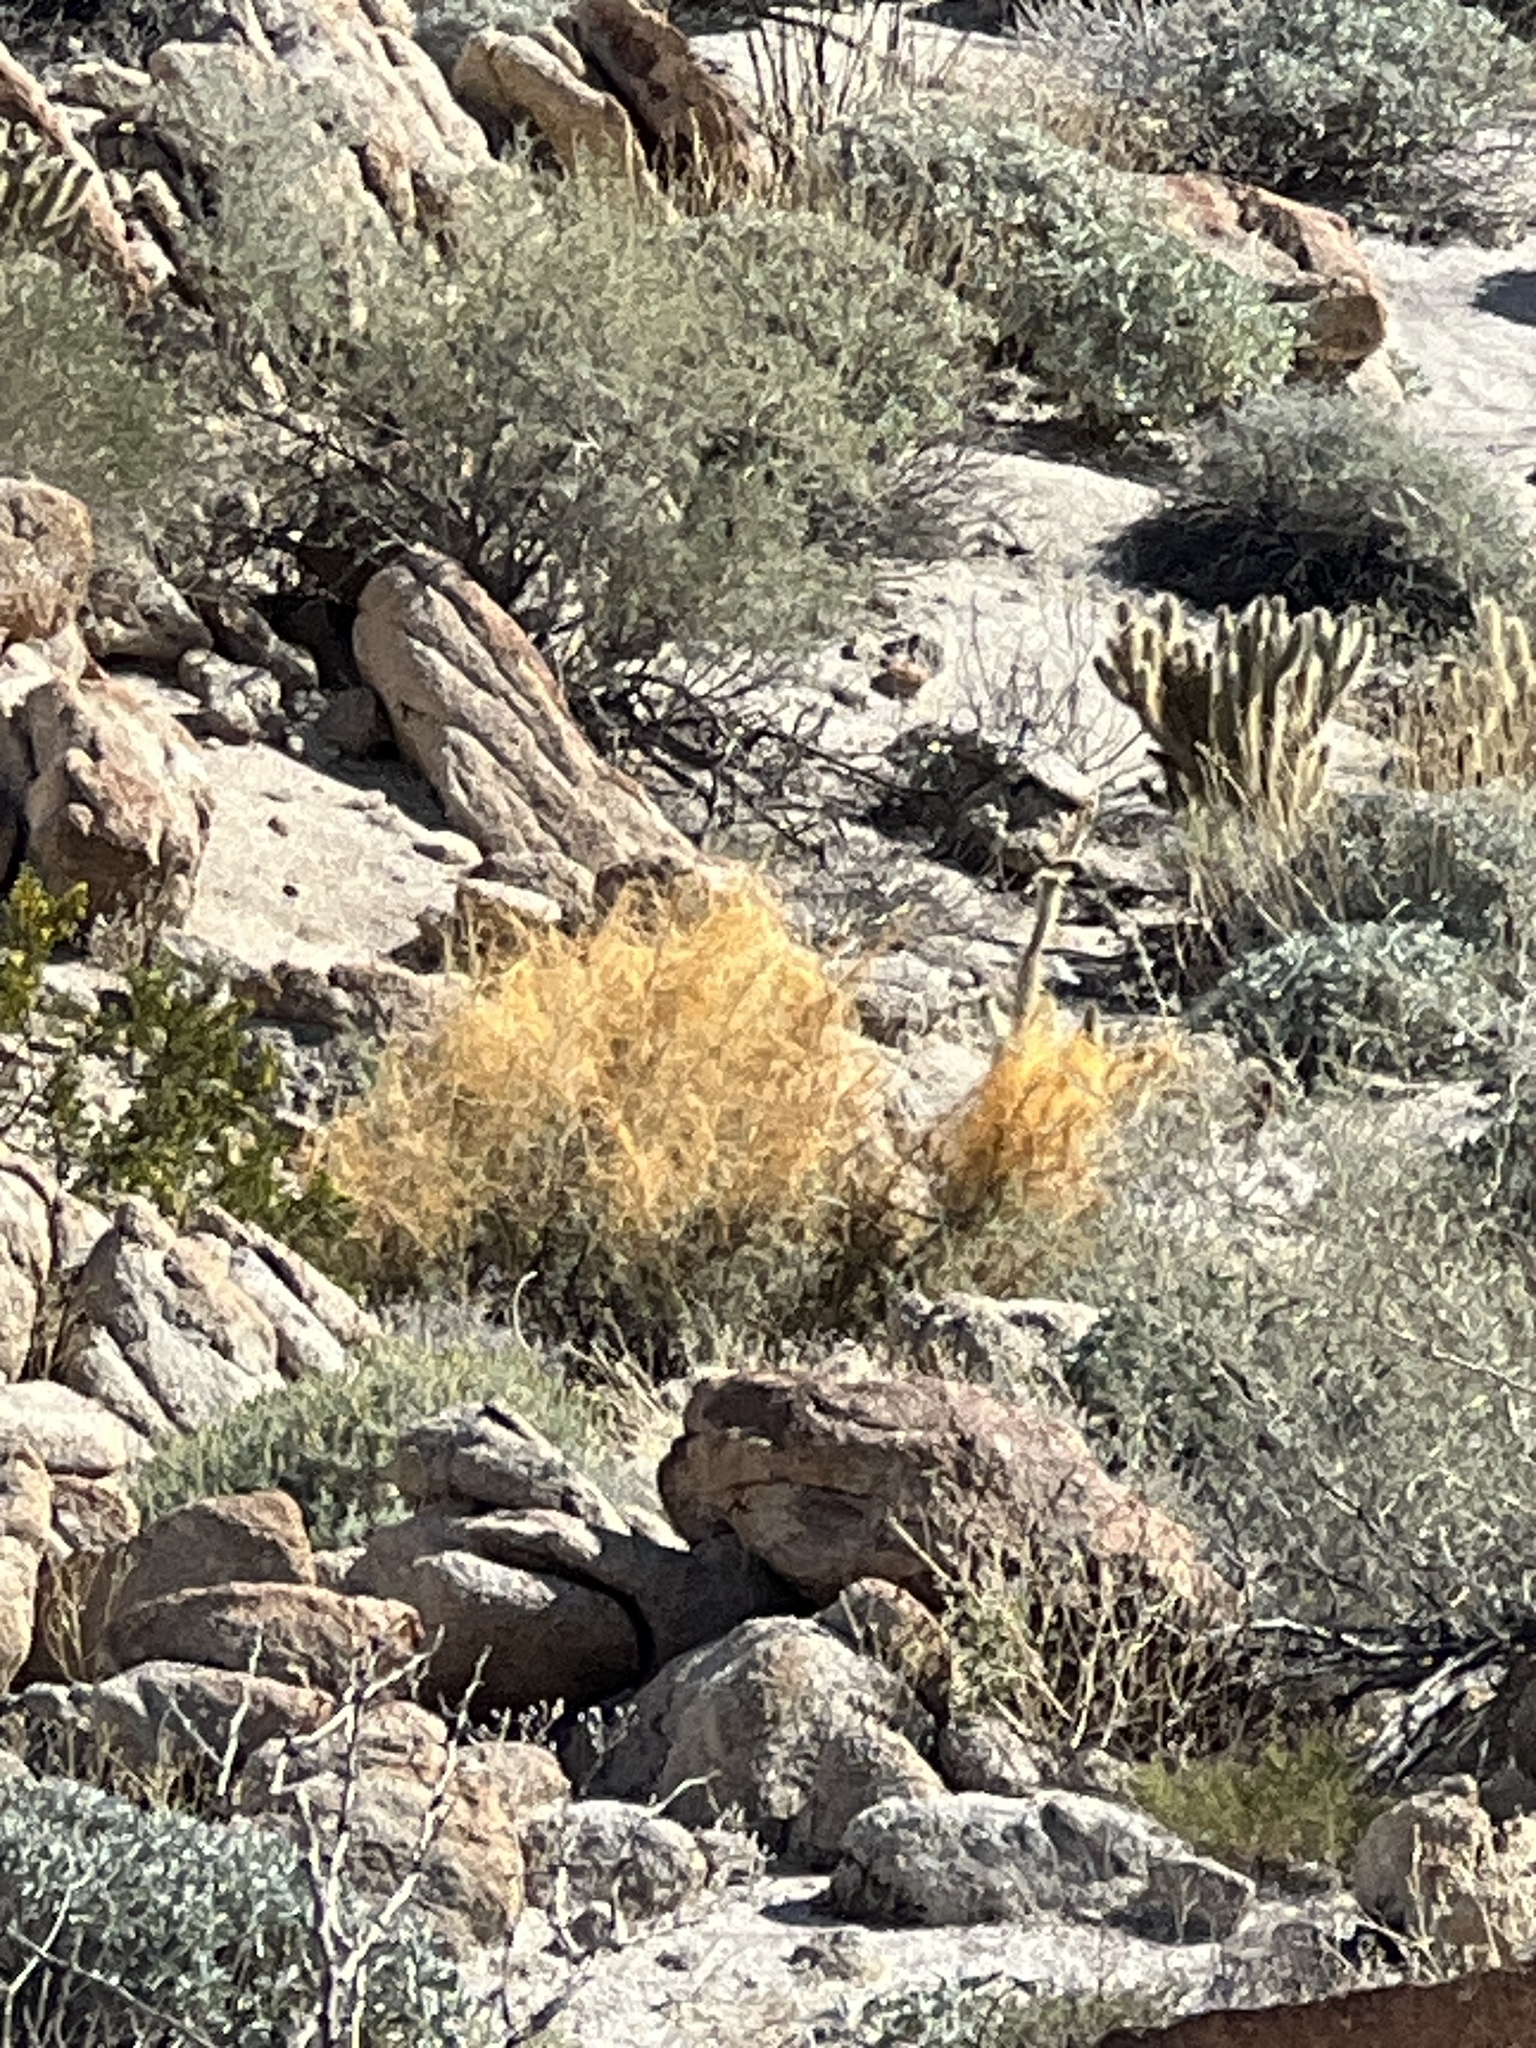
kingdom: Plantae
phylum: Tracheophyta
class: Magnoliopsida
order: Solanales
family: Convolvulaceae
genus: Cuscuta
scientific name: Cuscuta psorothamnensis
